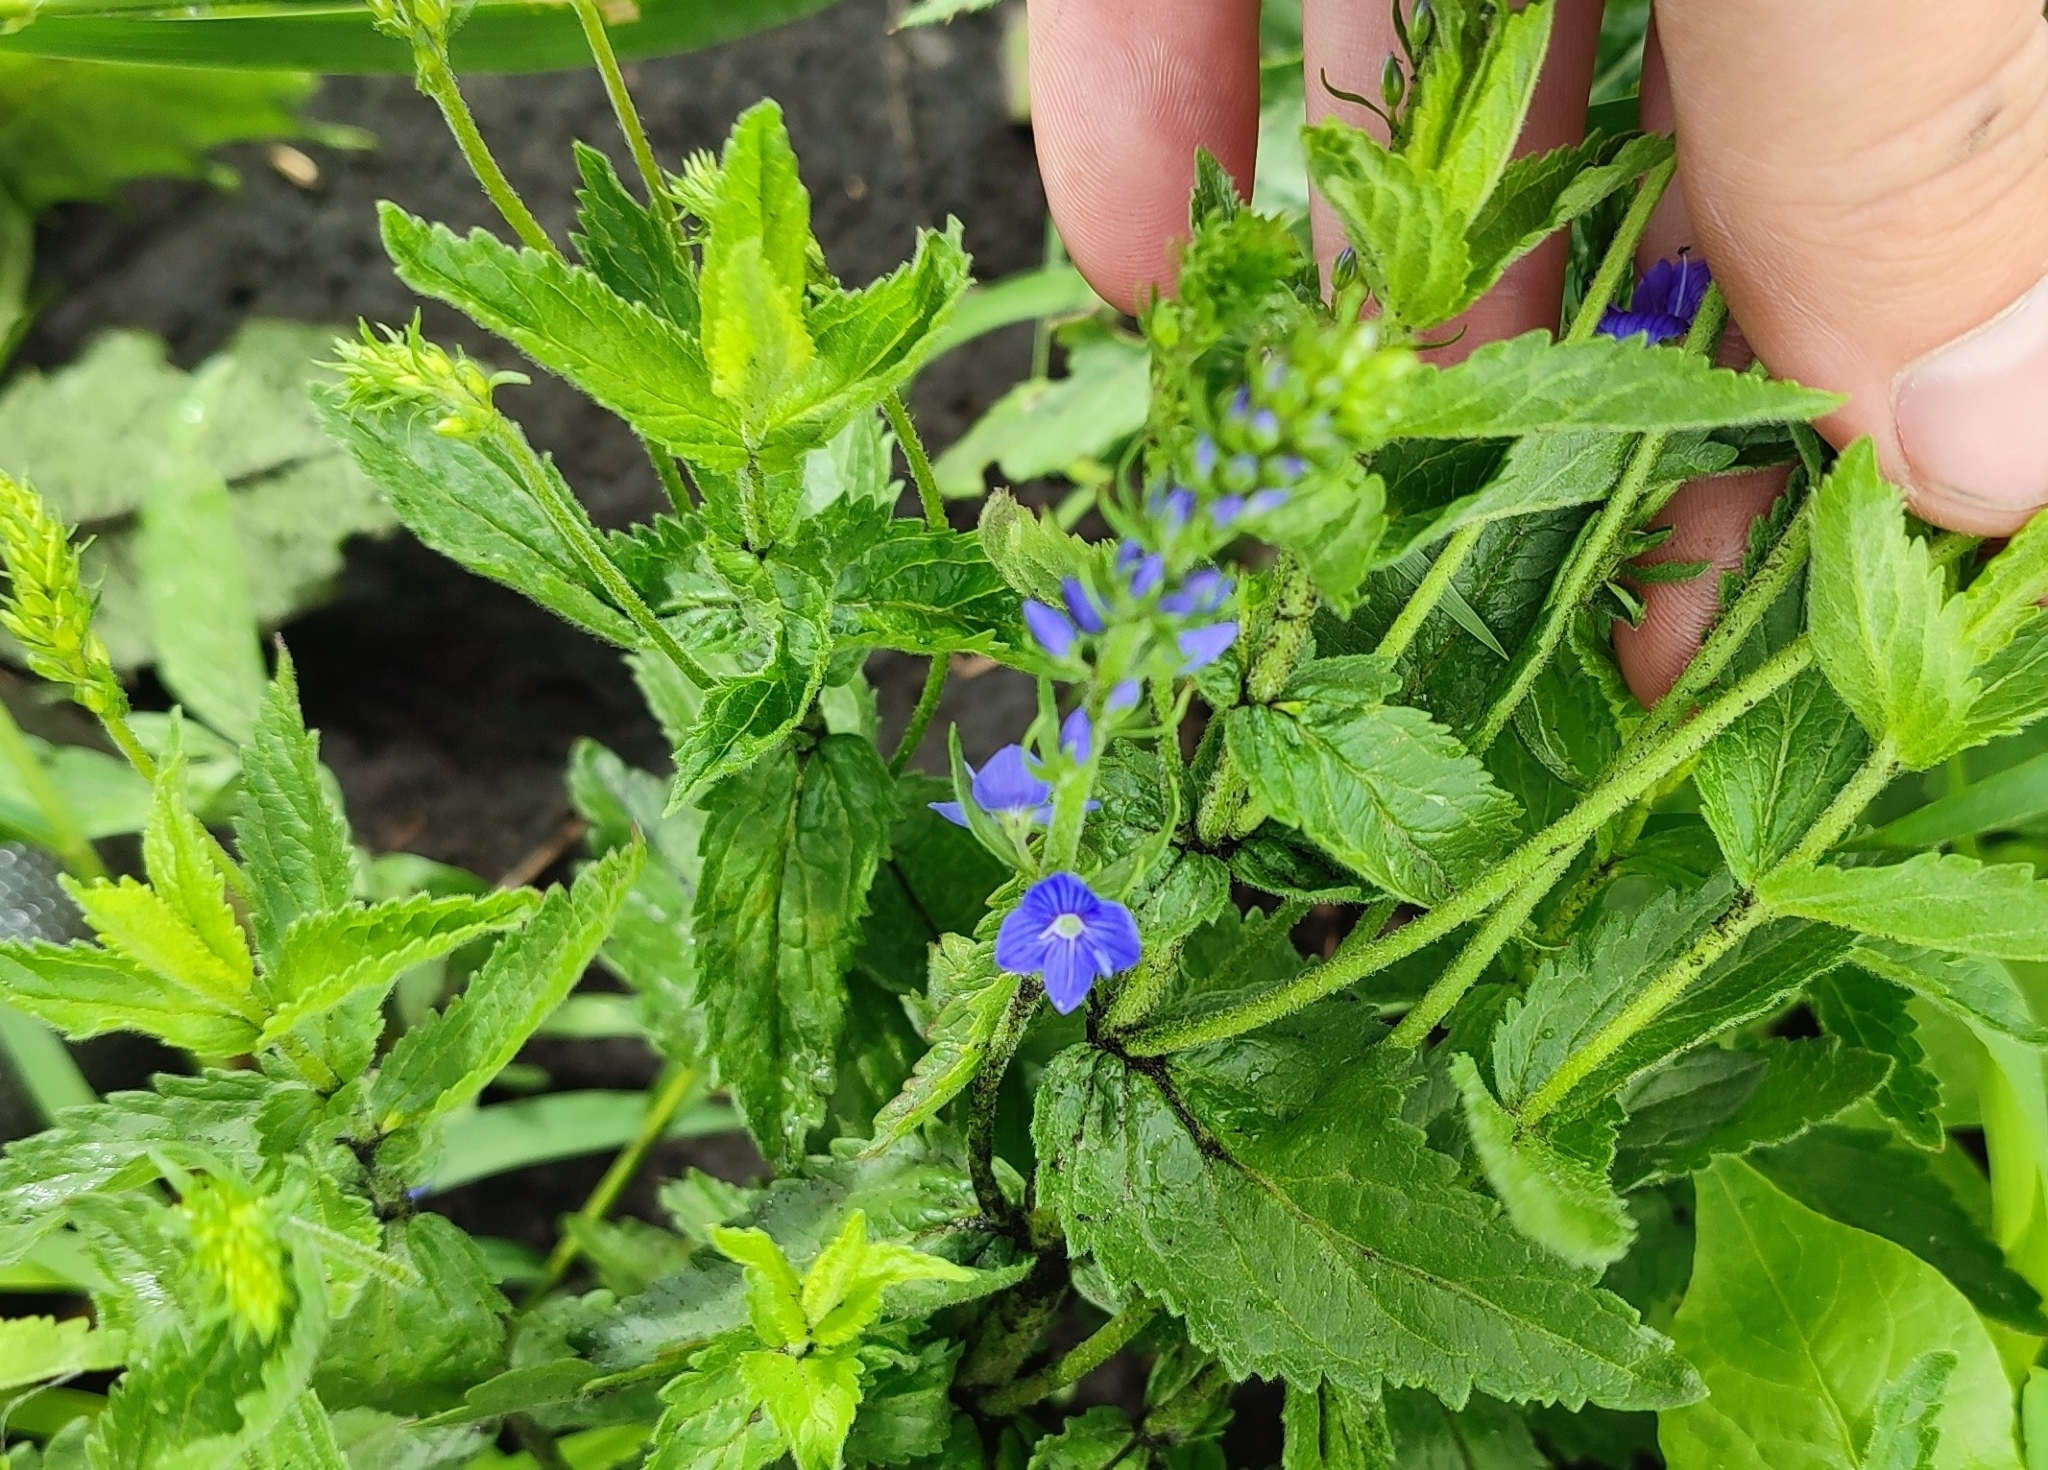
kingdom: Plantae
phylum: Tracheophyta
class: Magnoliopsida
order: Lamiales
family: Plantaginaceae
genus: Veronica
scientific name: Veronica teucrium
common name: Large speedwell
